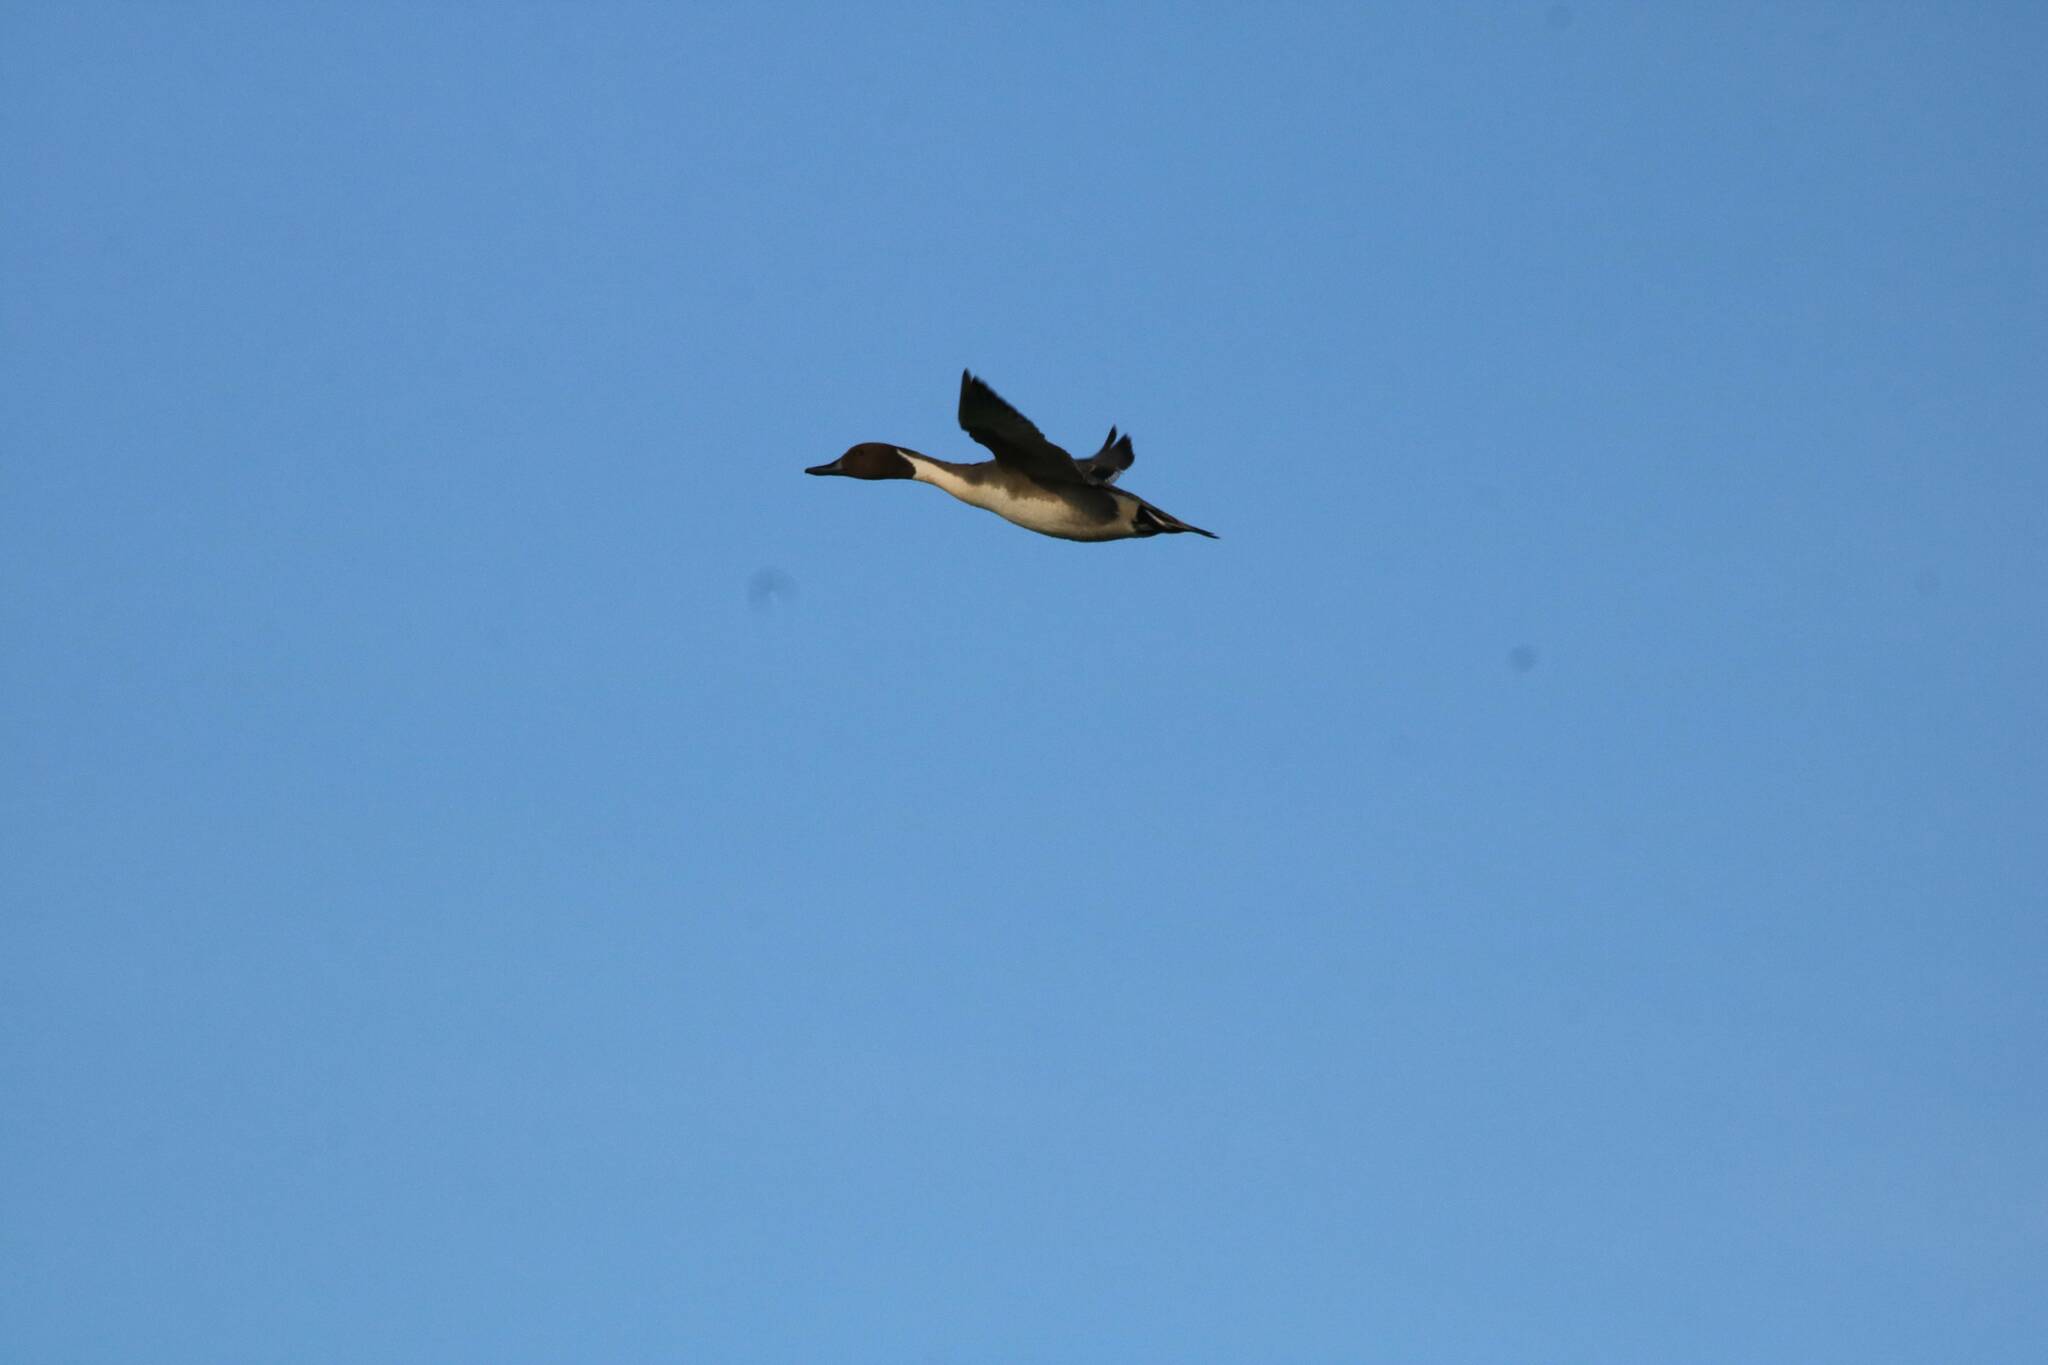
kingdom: Animalia
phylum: Chordata
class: Aves
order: Anseriformes
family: Anatidae
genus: Anas
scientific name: Anas acuta
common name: Northern pintail
